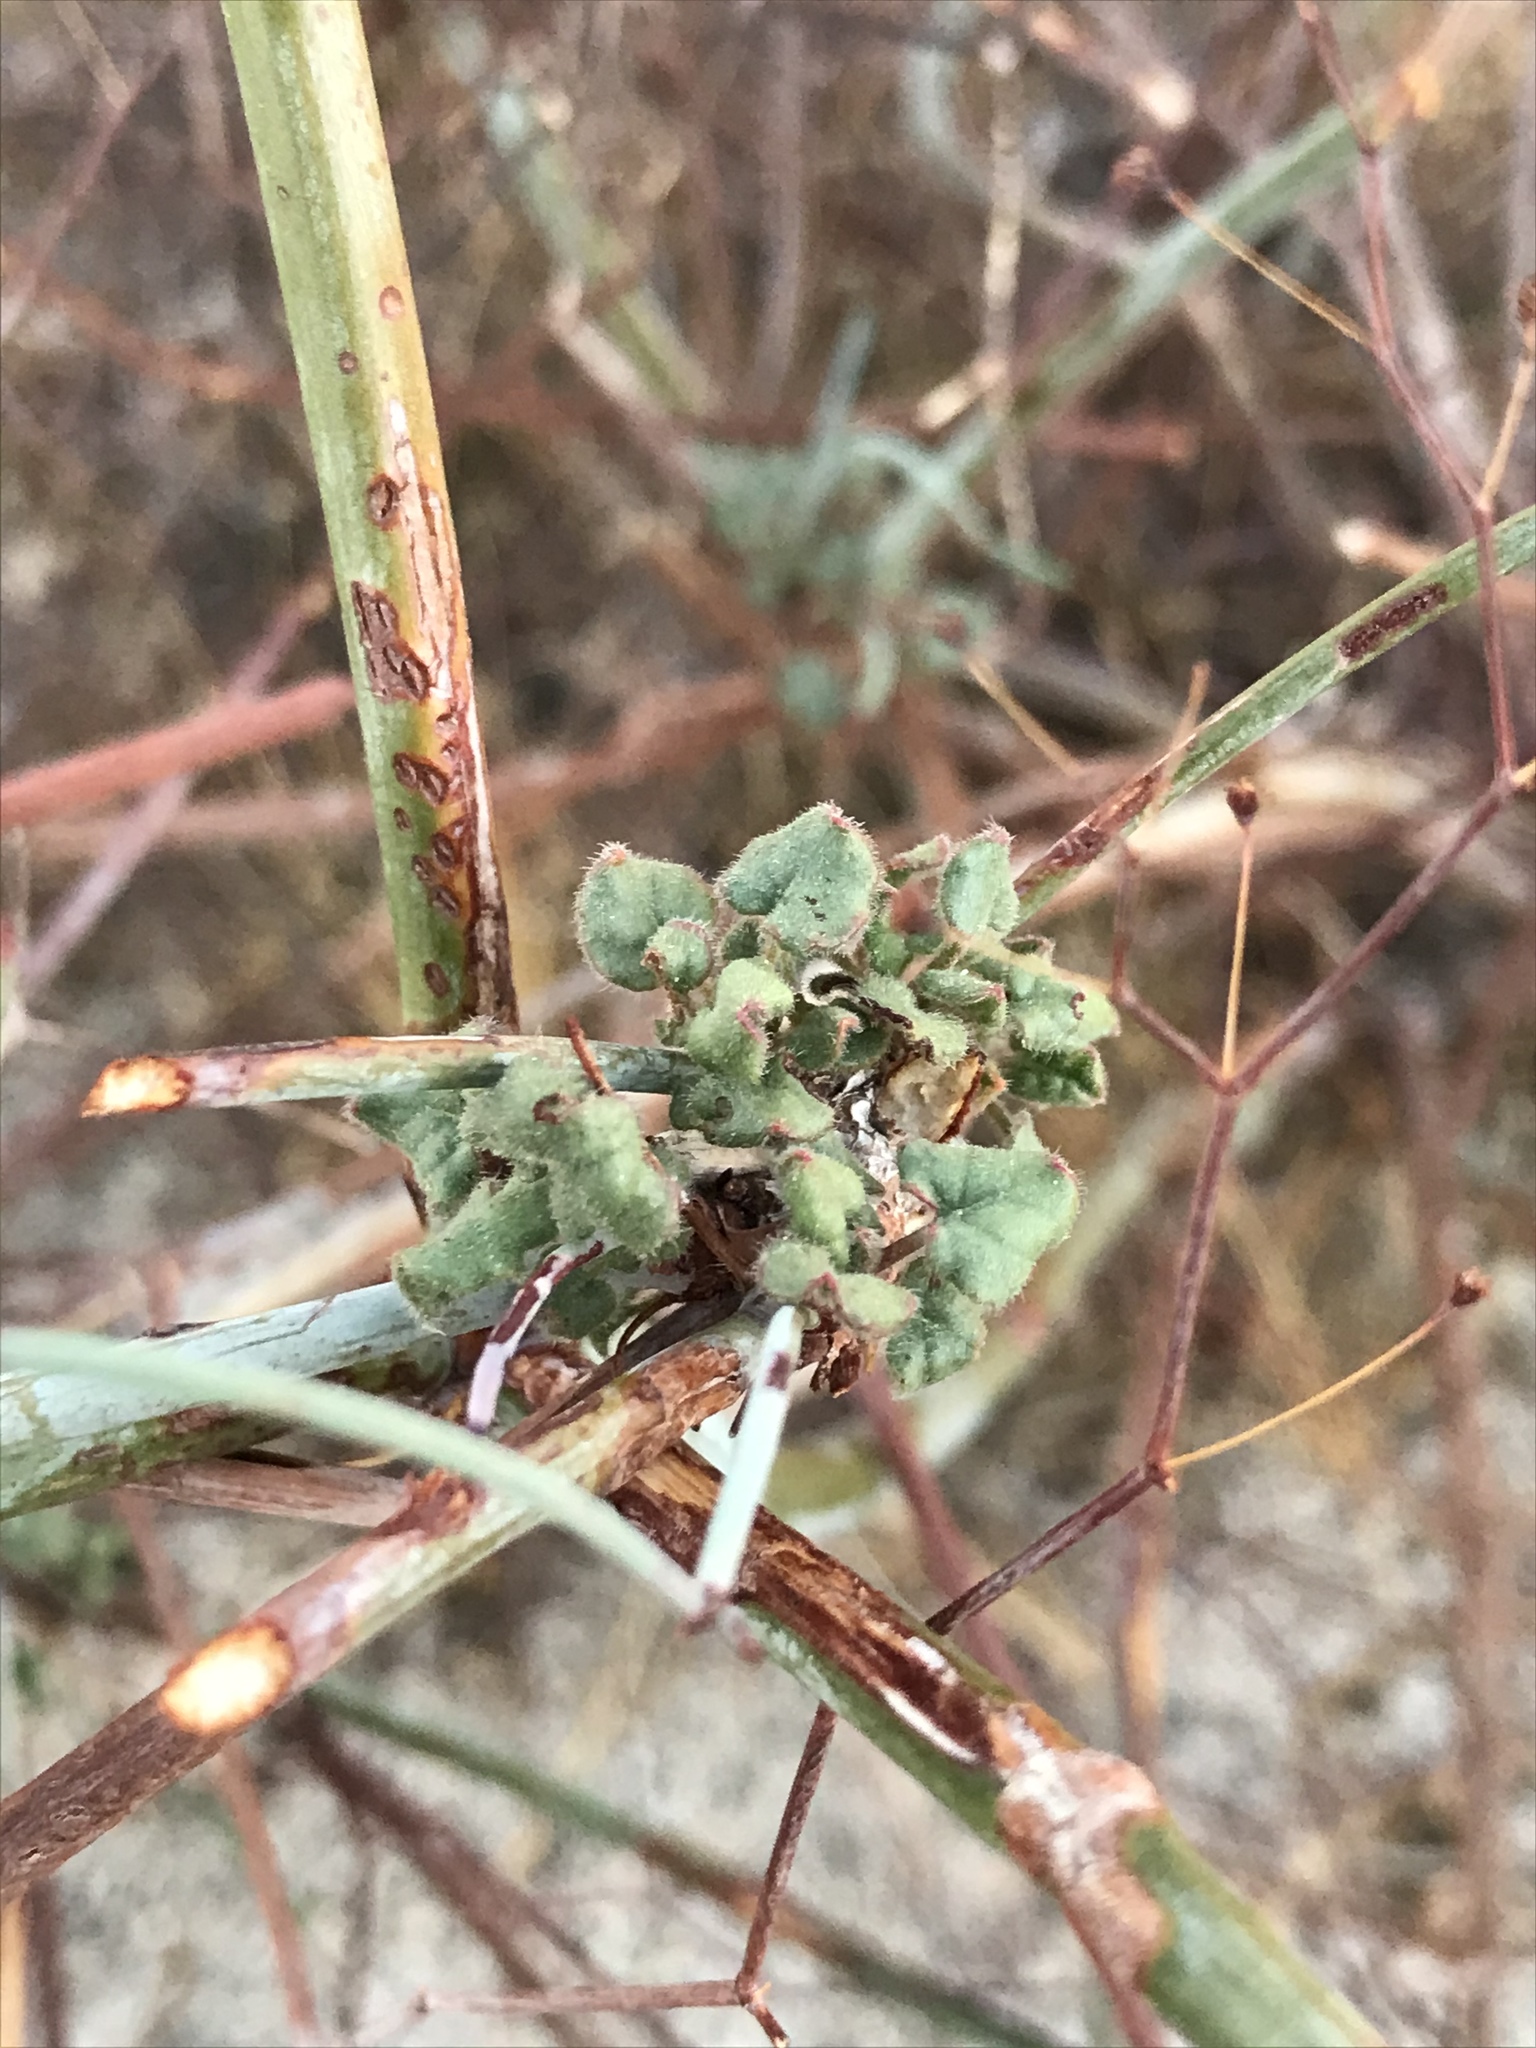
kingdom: Plantae
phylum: Tracheophyta
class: Magnoliopsida
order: Caryophyllales
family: Polygonaceae
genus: Eriogonum
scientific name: Eriogonum inflatum
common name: Desert trumpet
